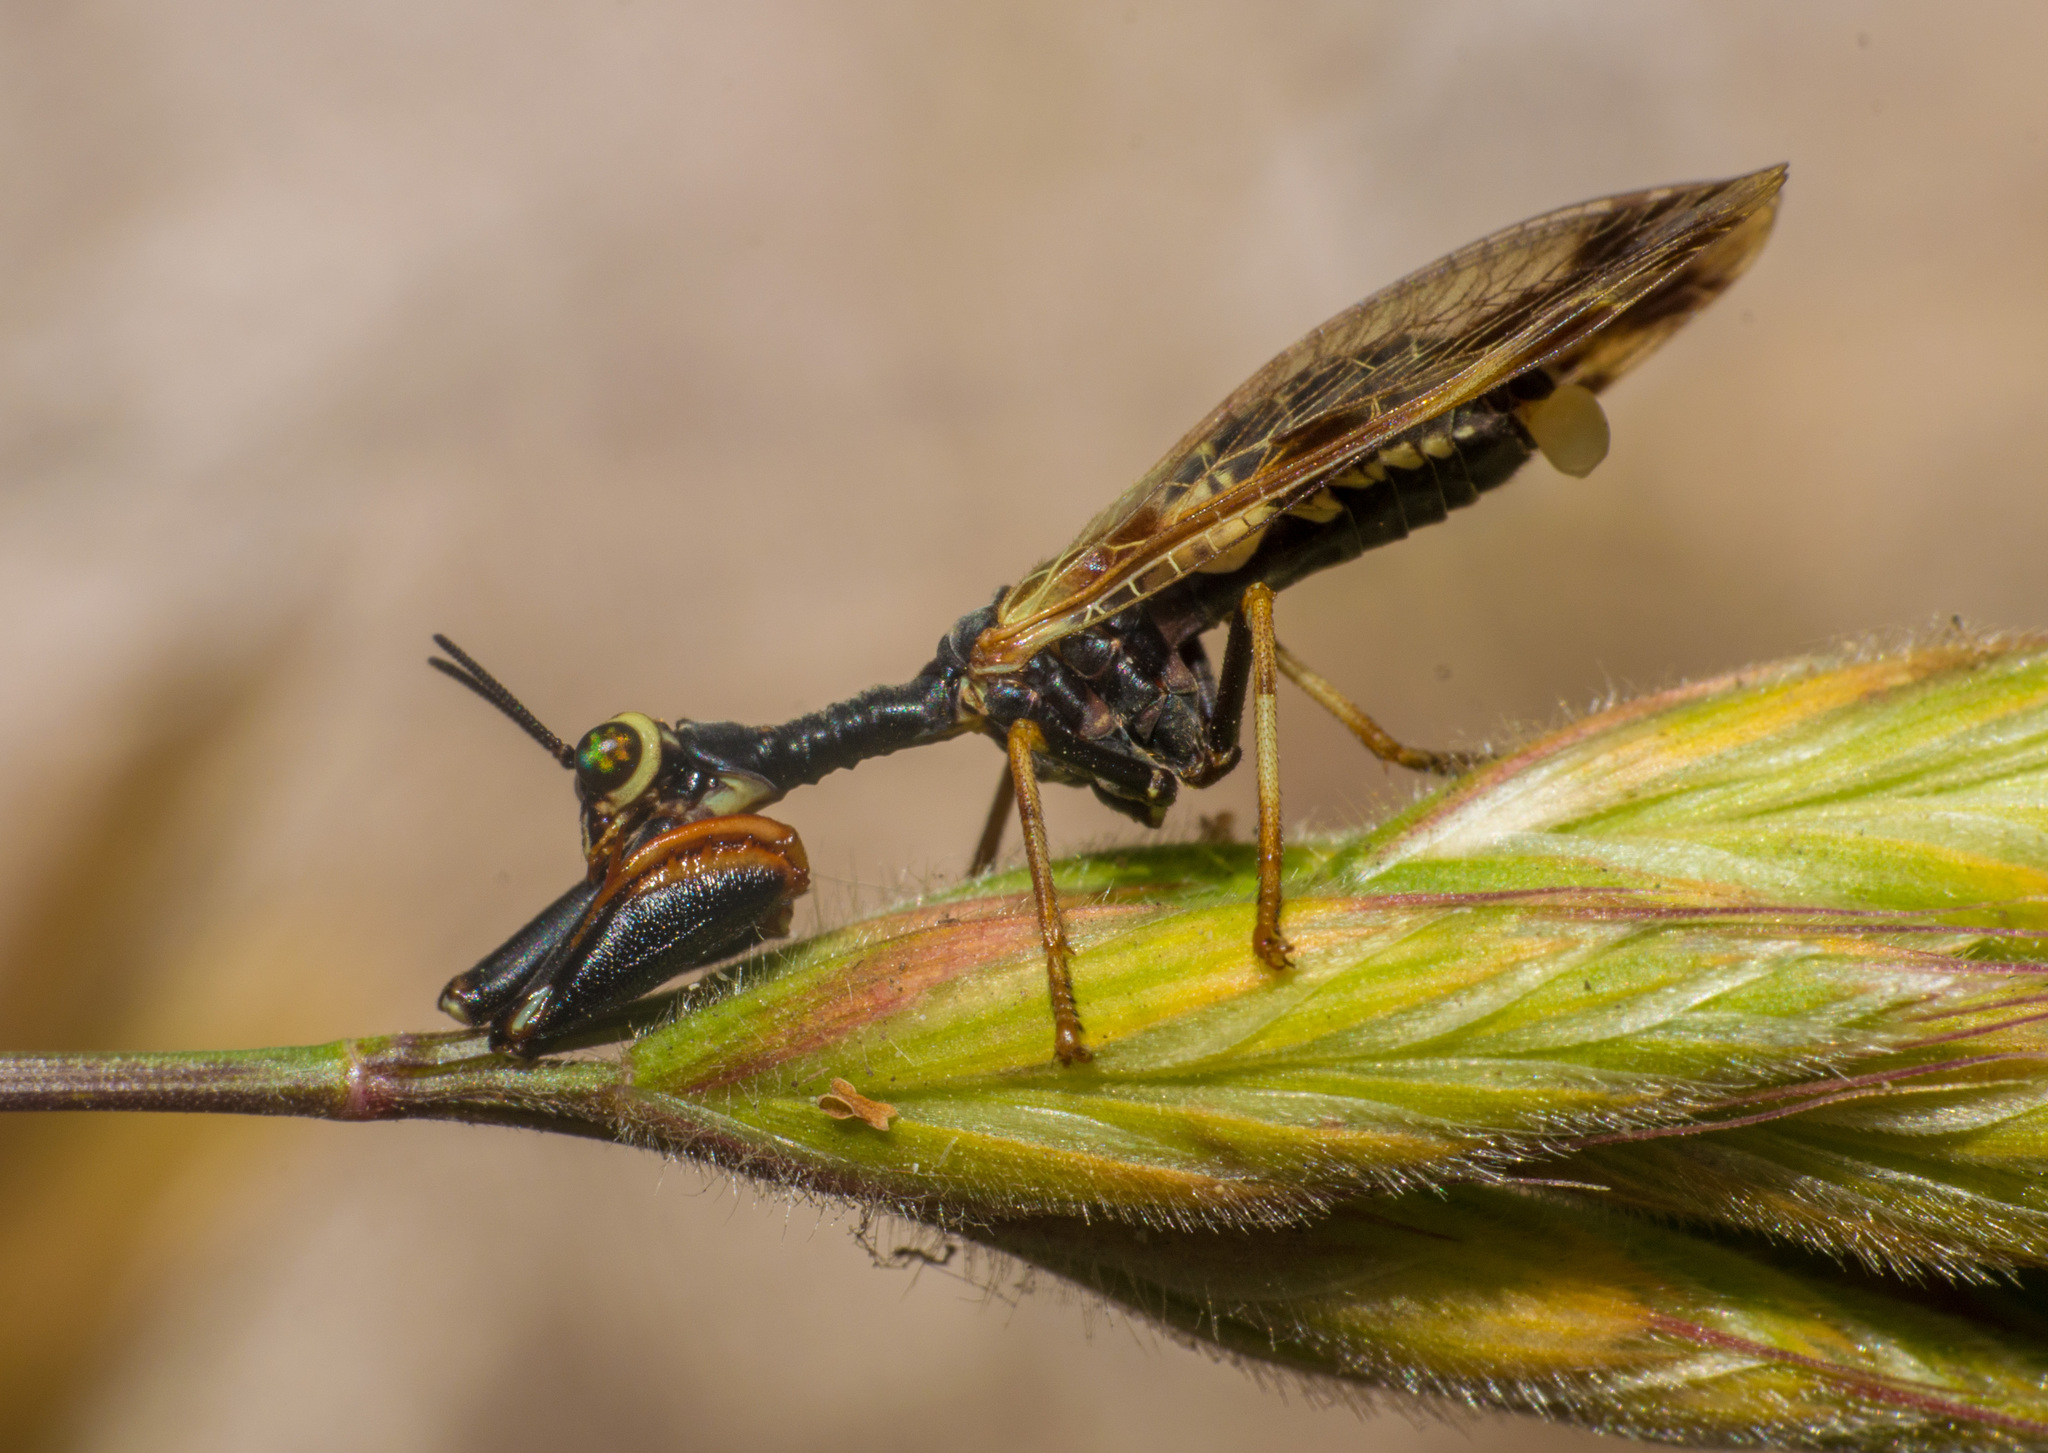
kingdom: Animalia
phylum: Arthropoda
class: Insecta
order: Neuroptera
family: Mantispidae
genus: Paramantispa
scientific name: Paramantispa ambusta
